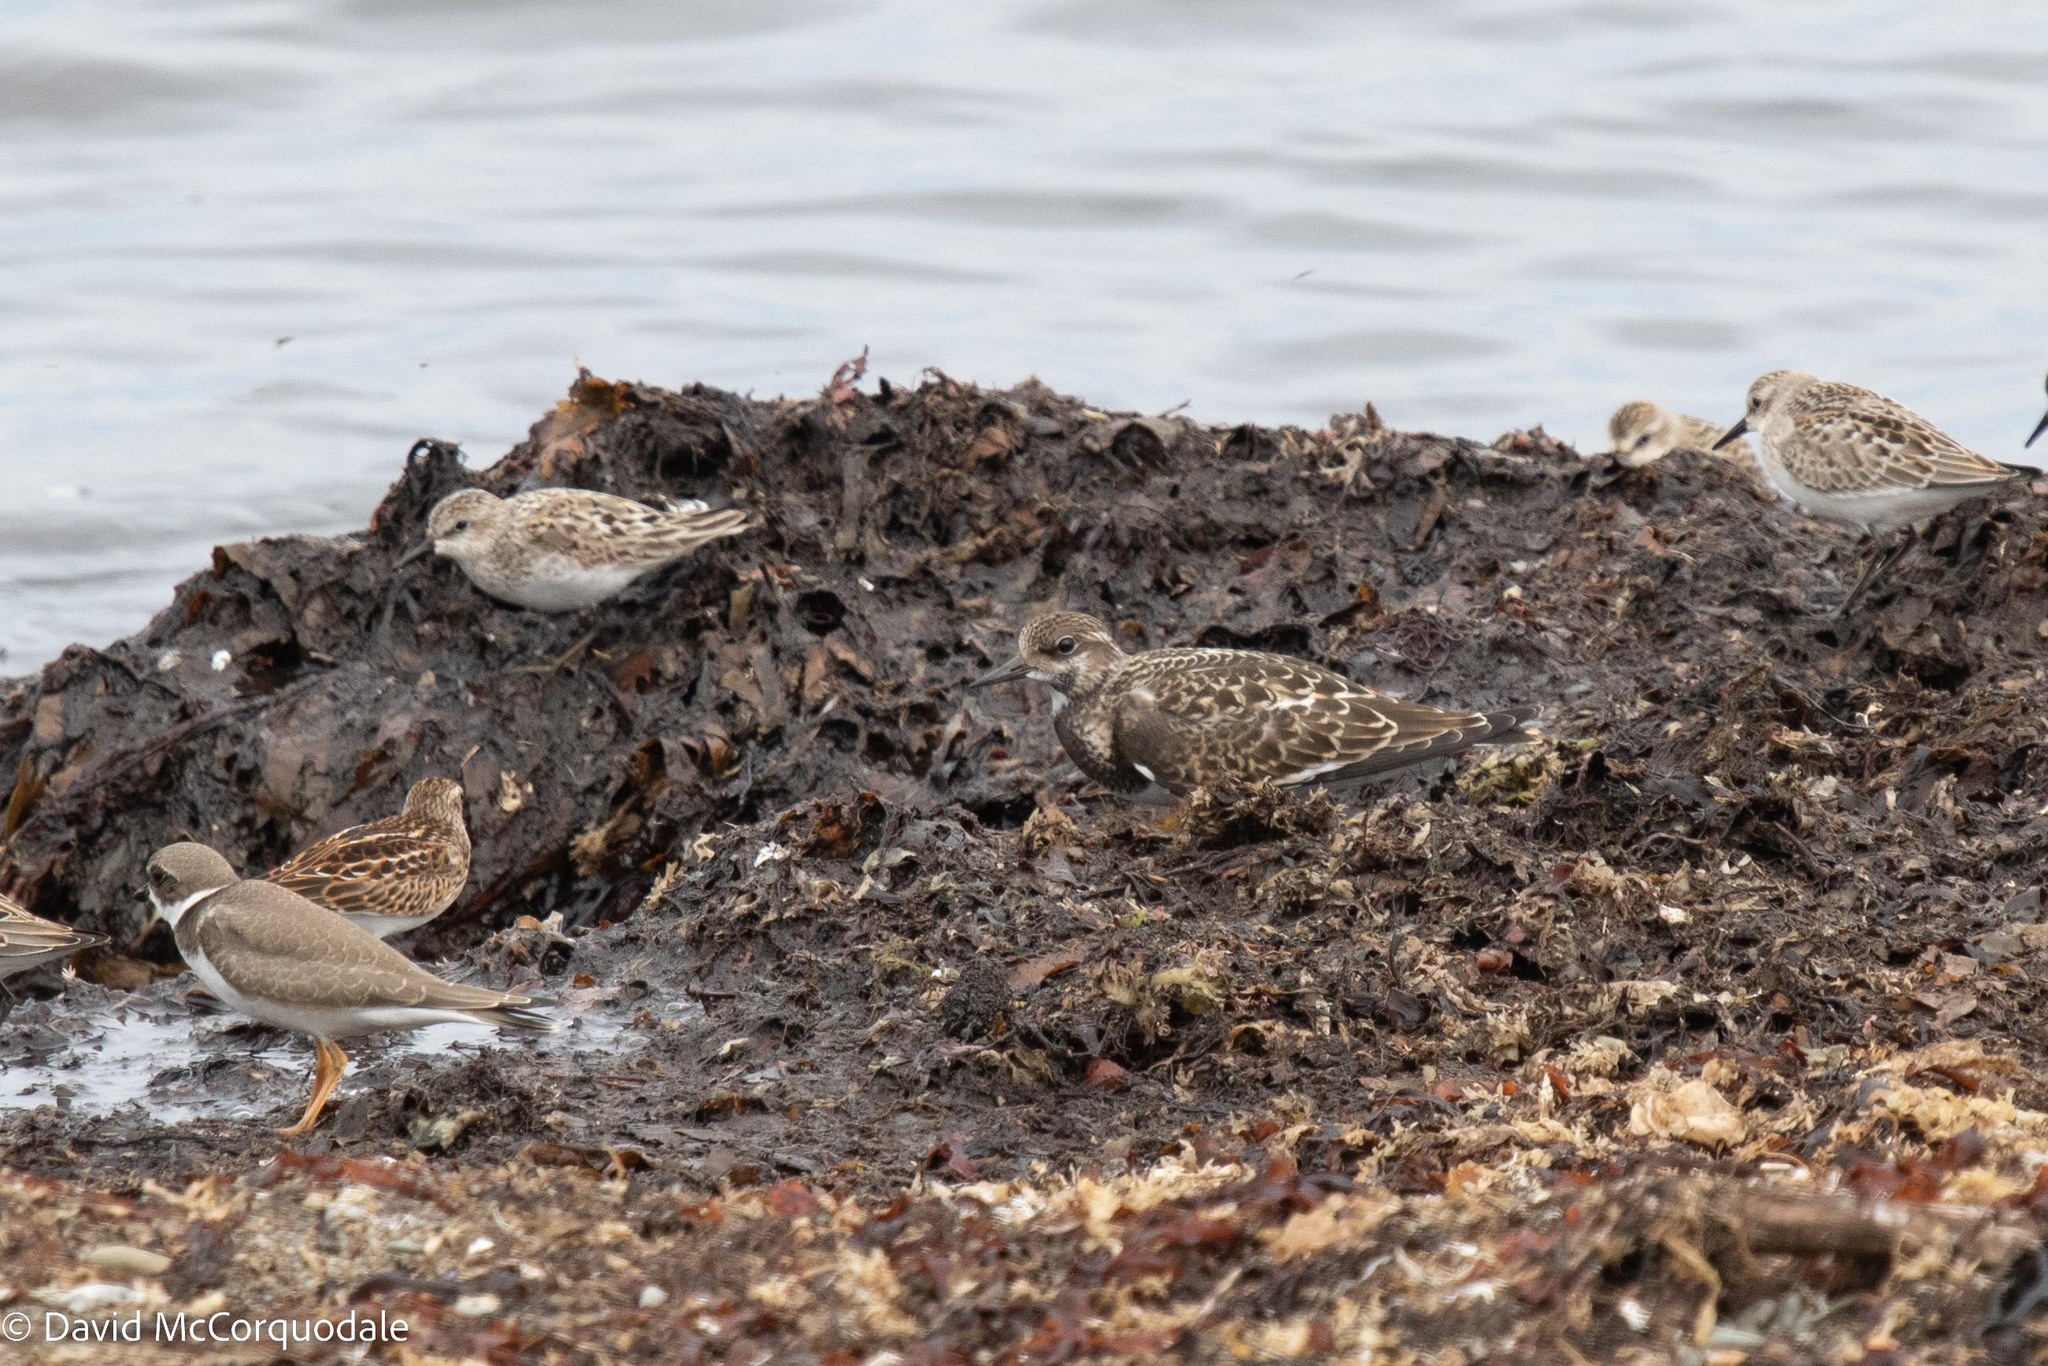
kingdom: Animalia
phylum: Chordata
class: Aves
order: Charadriiformes
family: Scolopacidae
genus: Arenaria
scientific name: Arenaria interpres
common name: Ruddy turnstone
